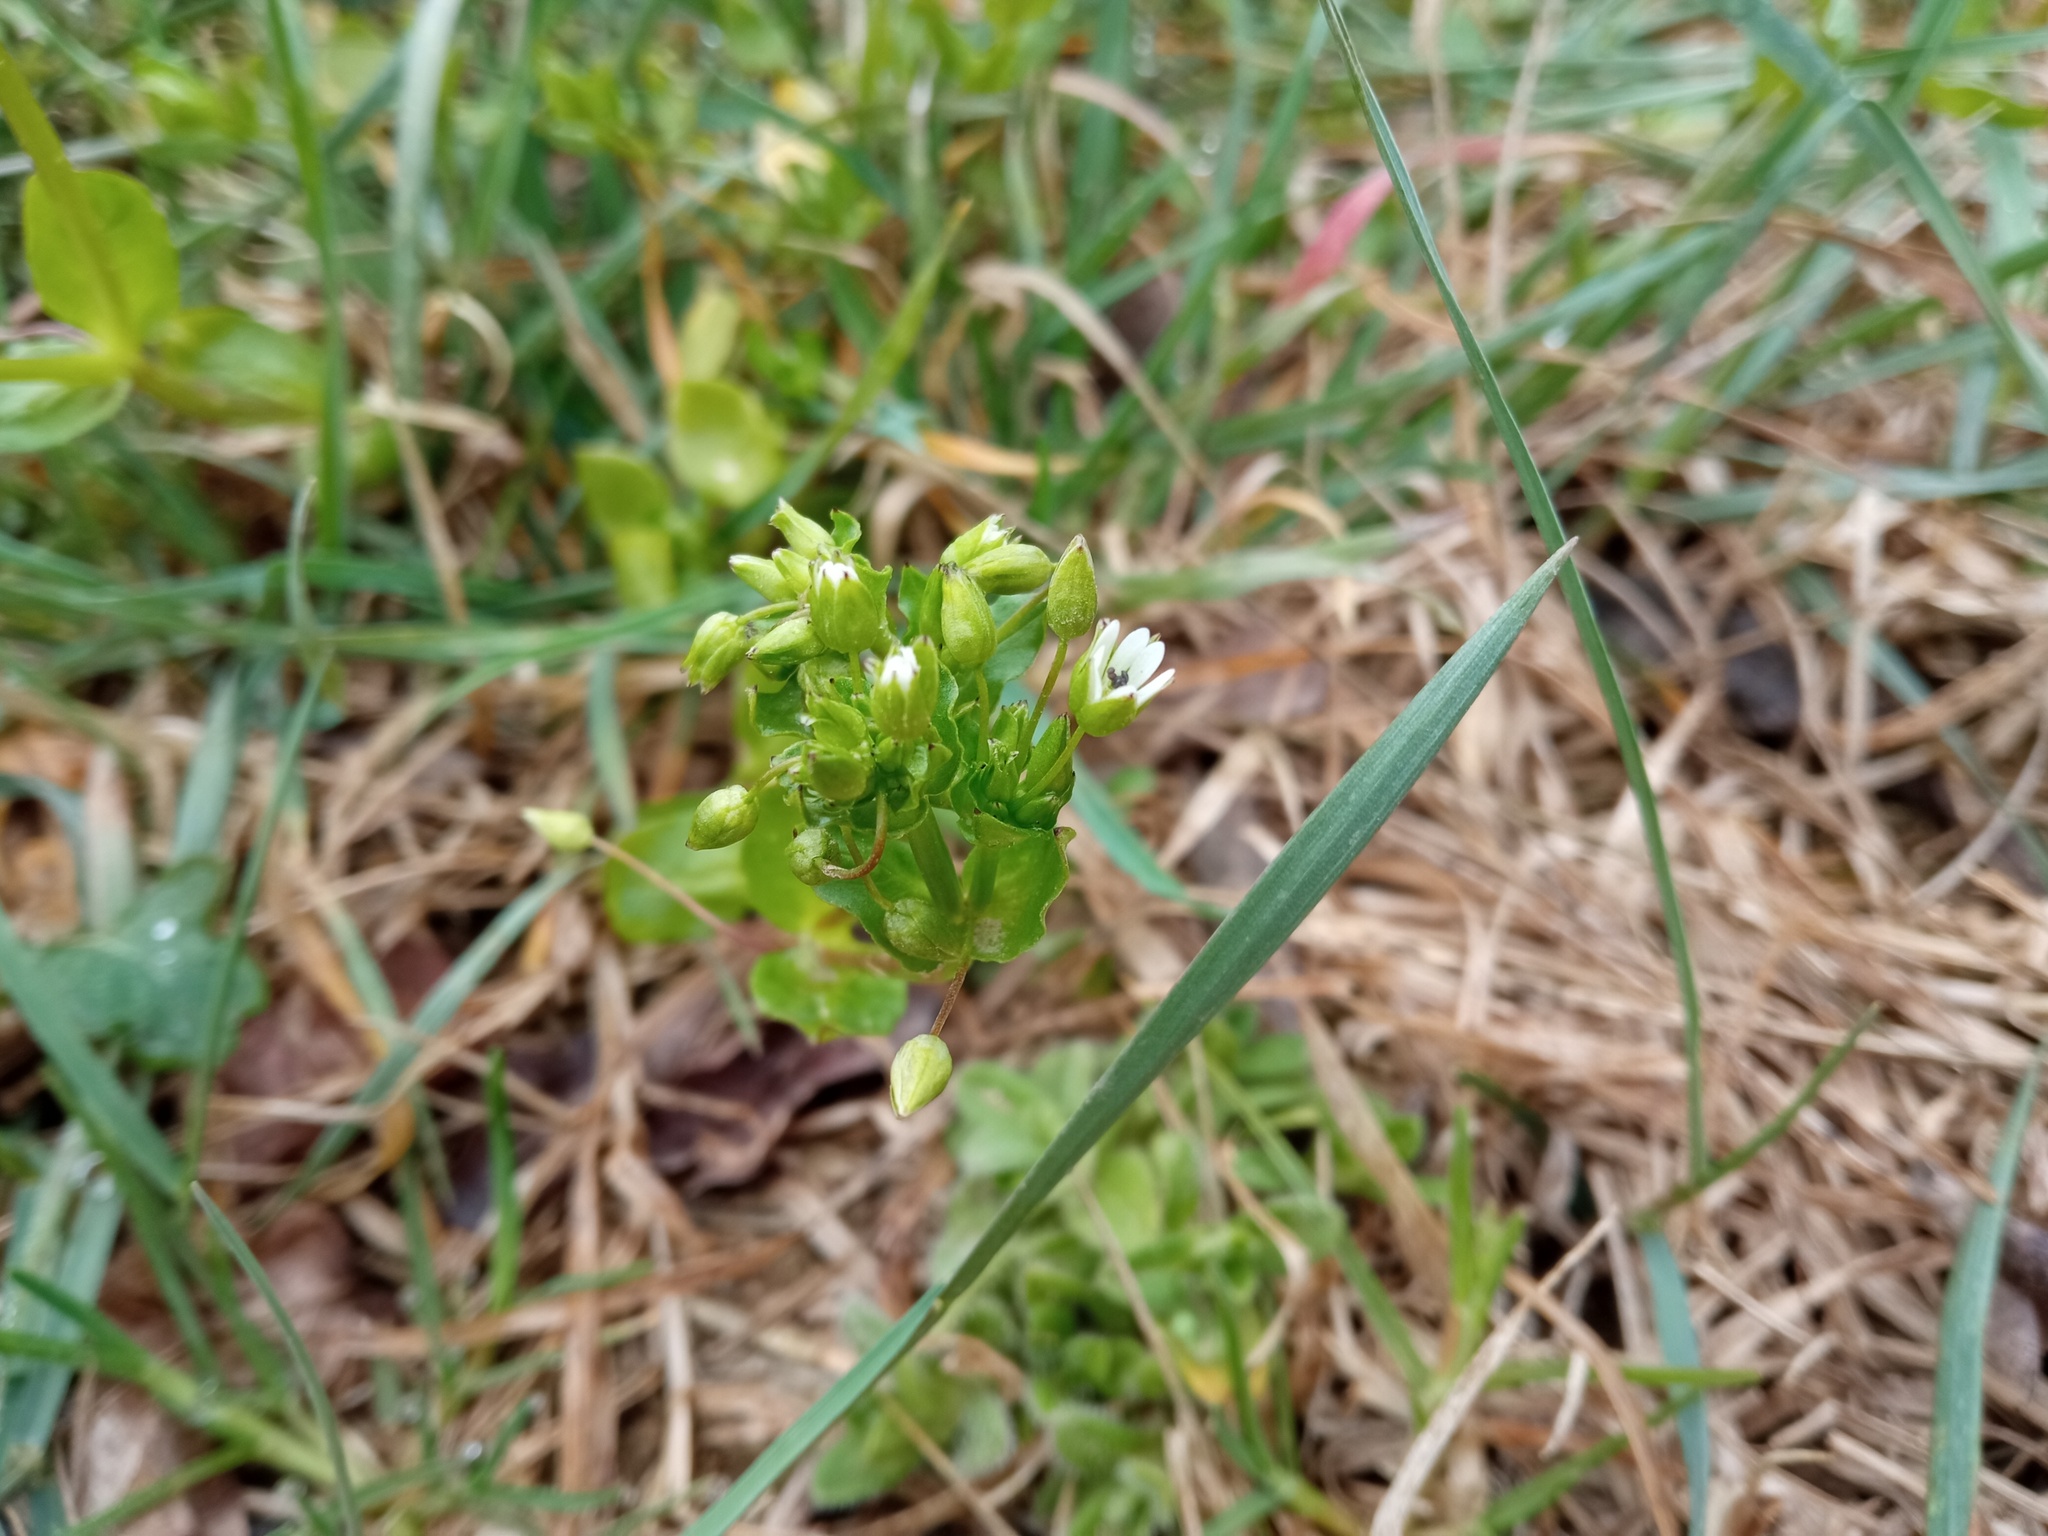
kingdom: Plantae
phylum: Tracheophyta
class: Magnoliopsida
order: Caryophyllales
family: Caryophyllaceae
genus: Stellaria
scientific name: Stellaria media
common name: Common chickweed
